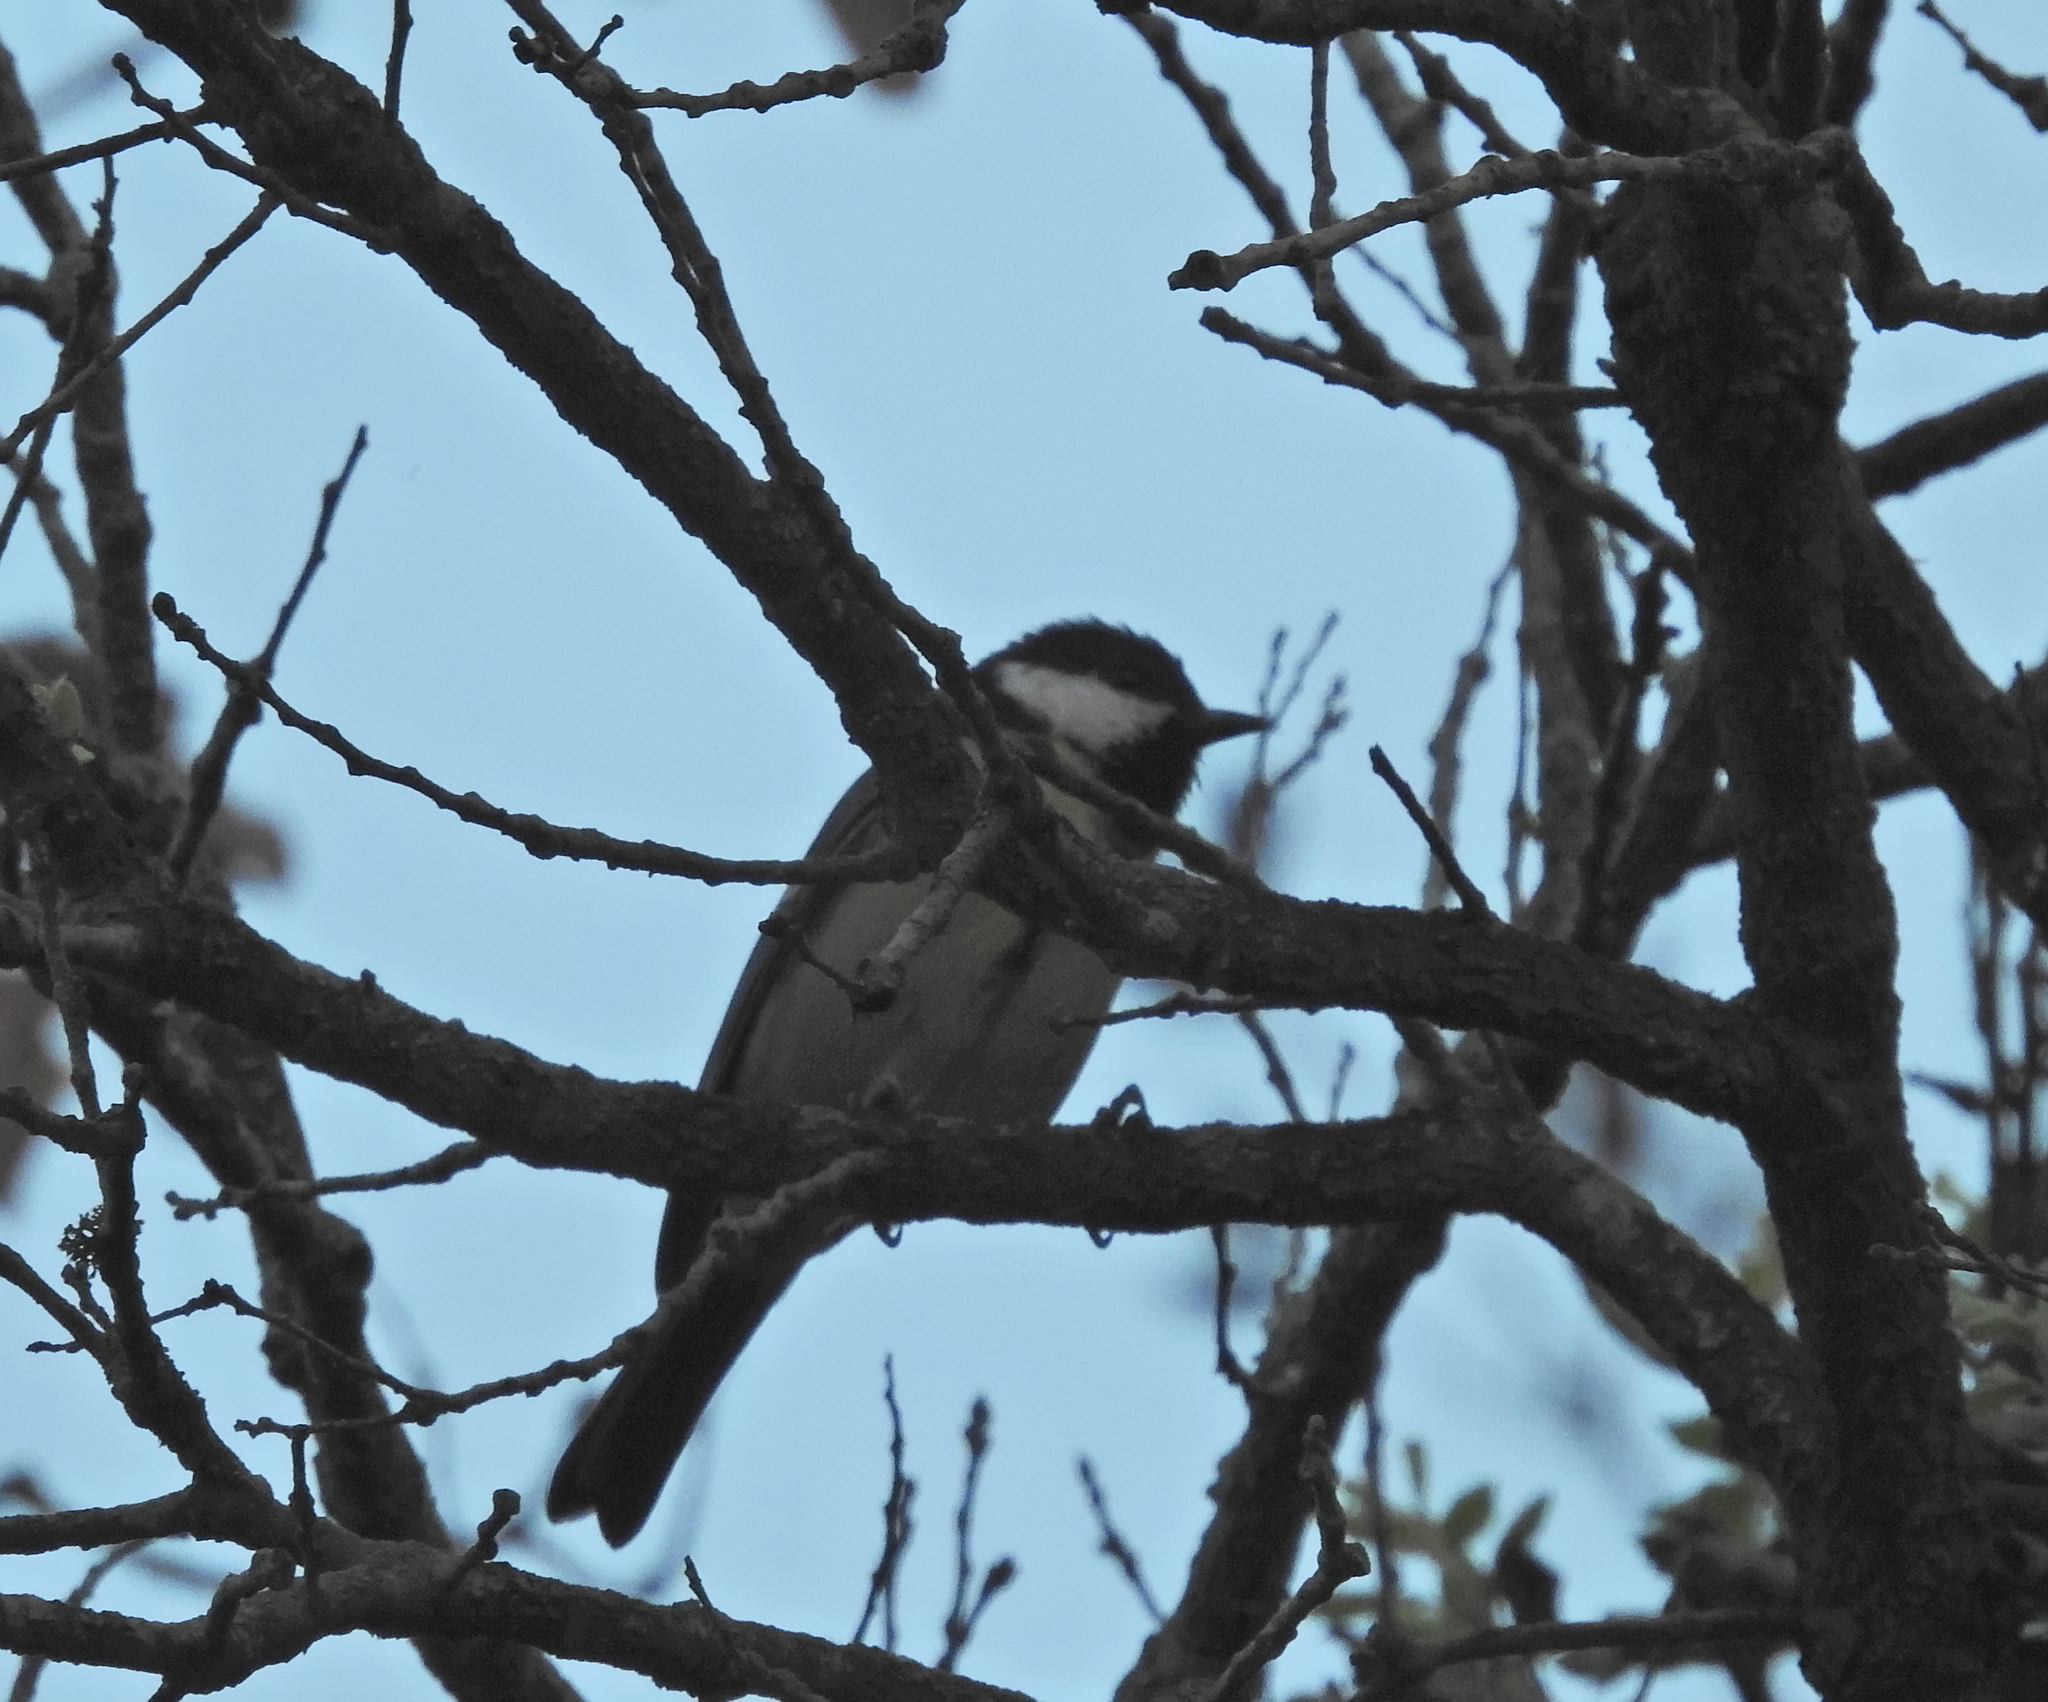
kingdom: Animalia
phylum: Chordata
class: Aves
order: Passeriformes
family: Paridae
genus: Parus
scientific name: Parus major
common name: Great tit
